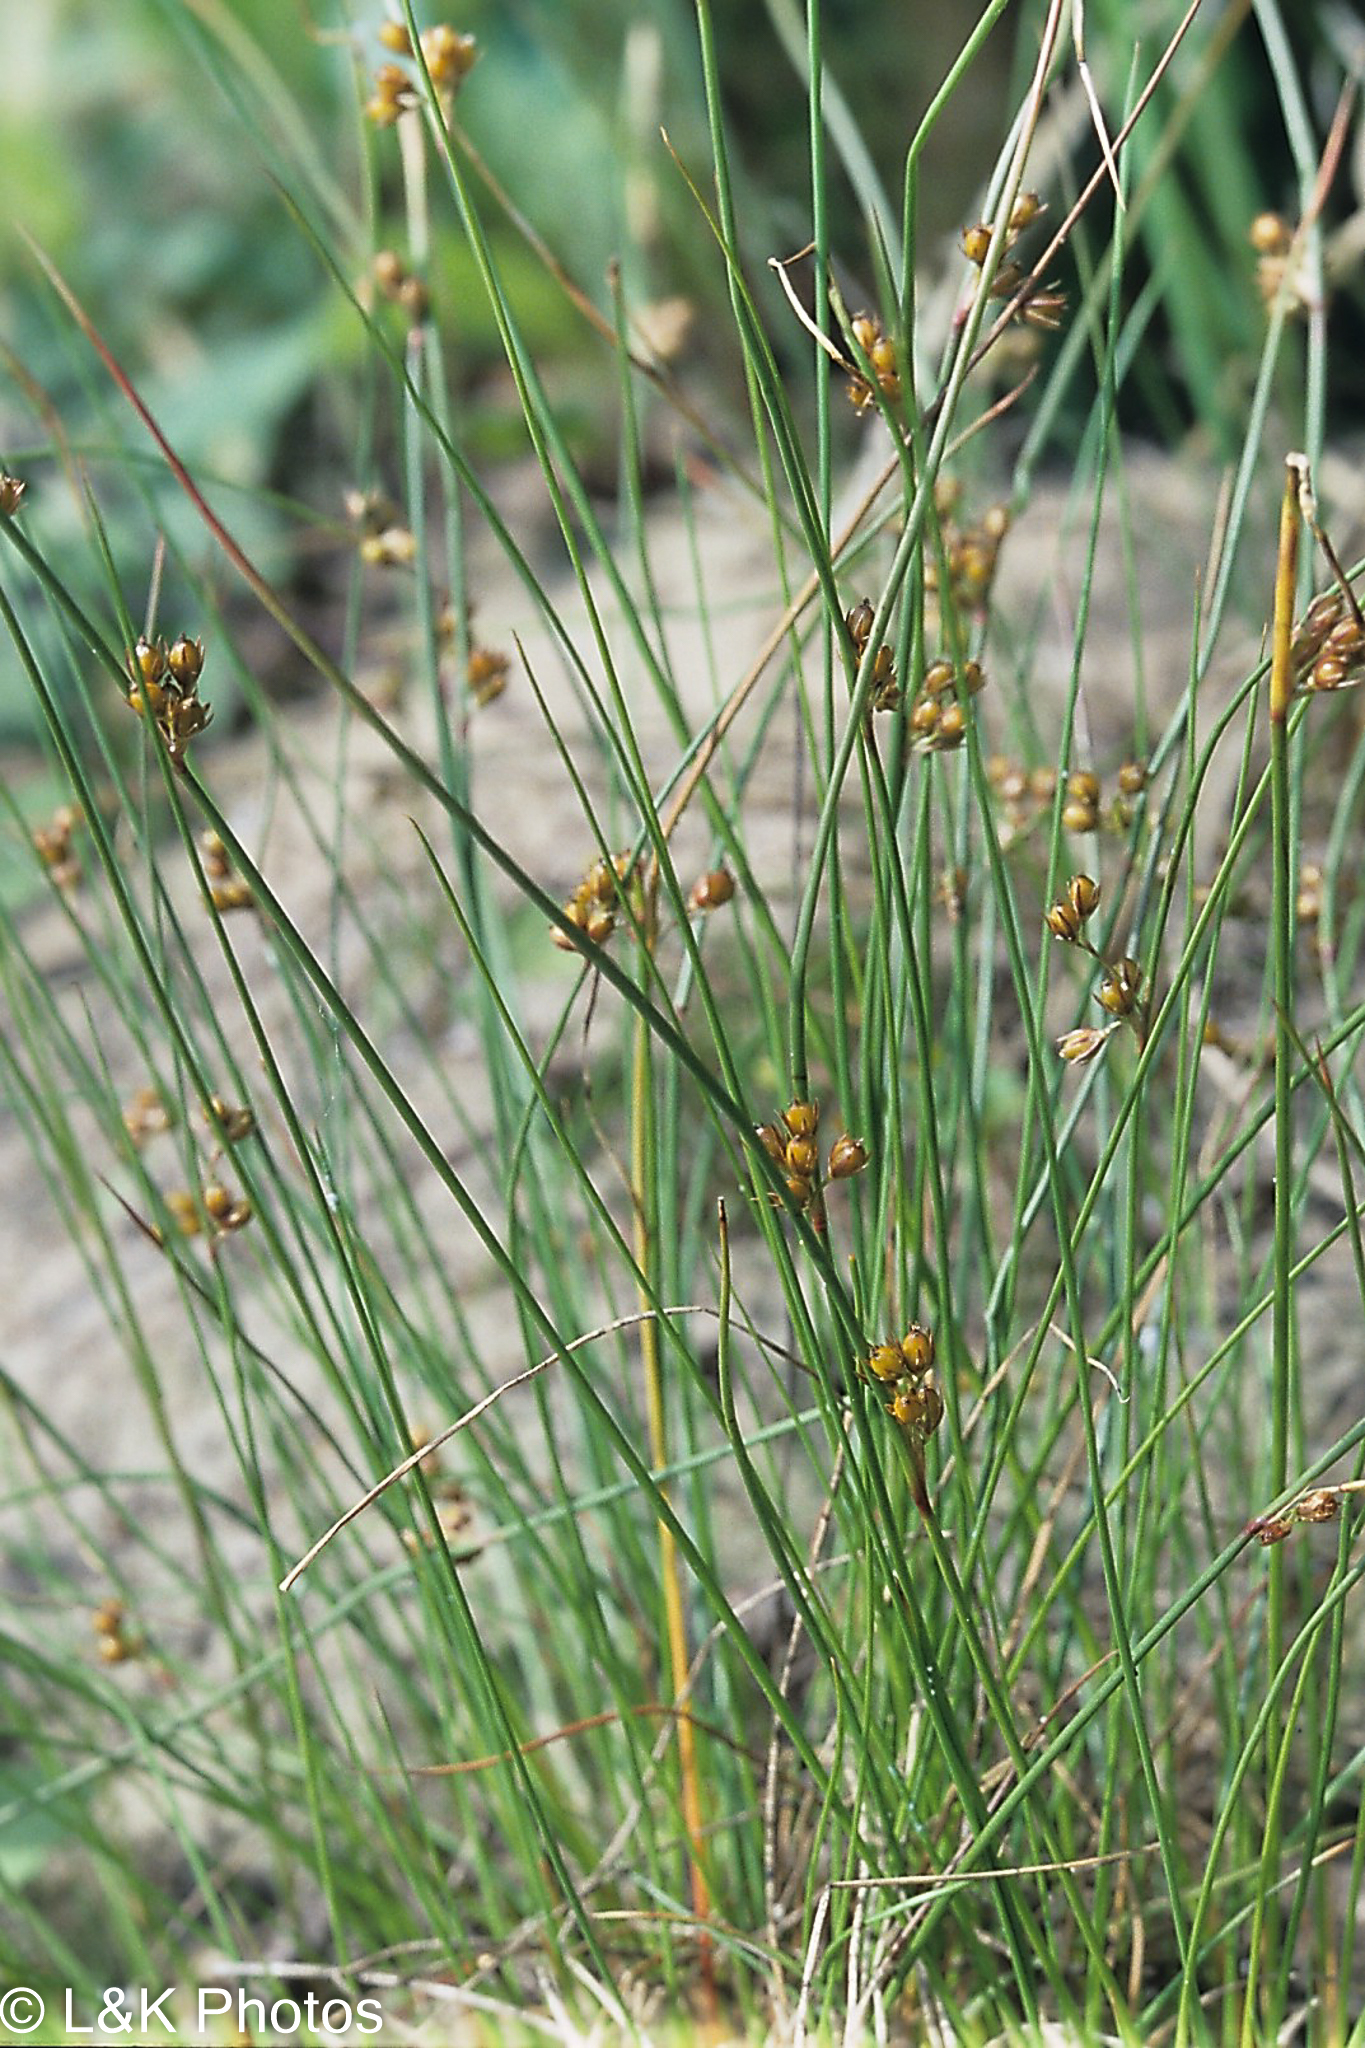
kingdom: Plantae
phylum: Tracheophyta
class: Liliopsida
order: Poales
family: Juncaceae
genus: Juncus
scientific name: Juncus filiformis
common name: Thread rush
